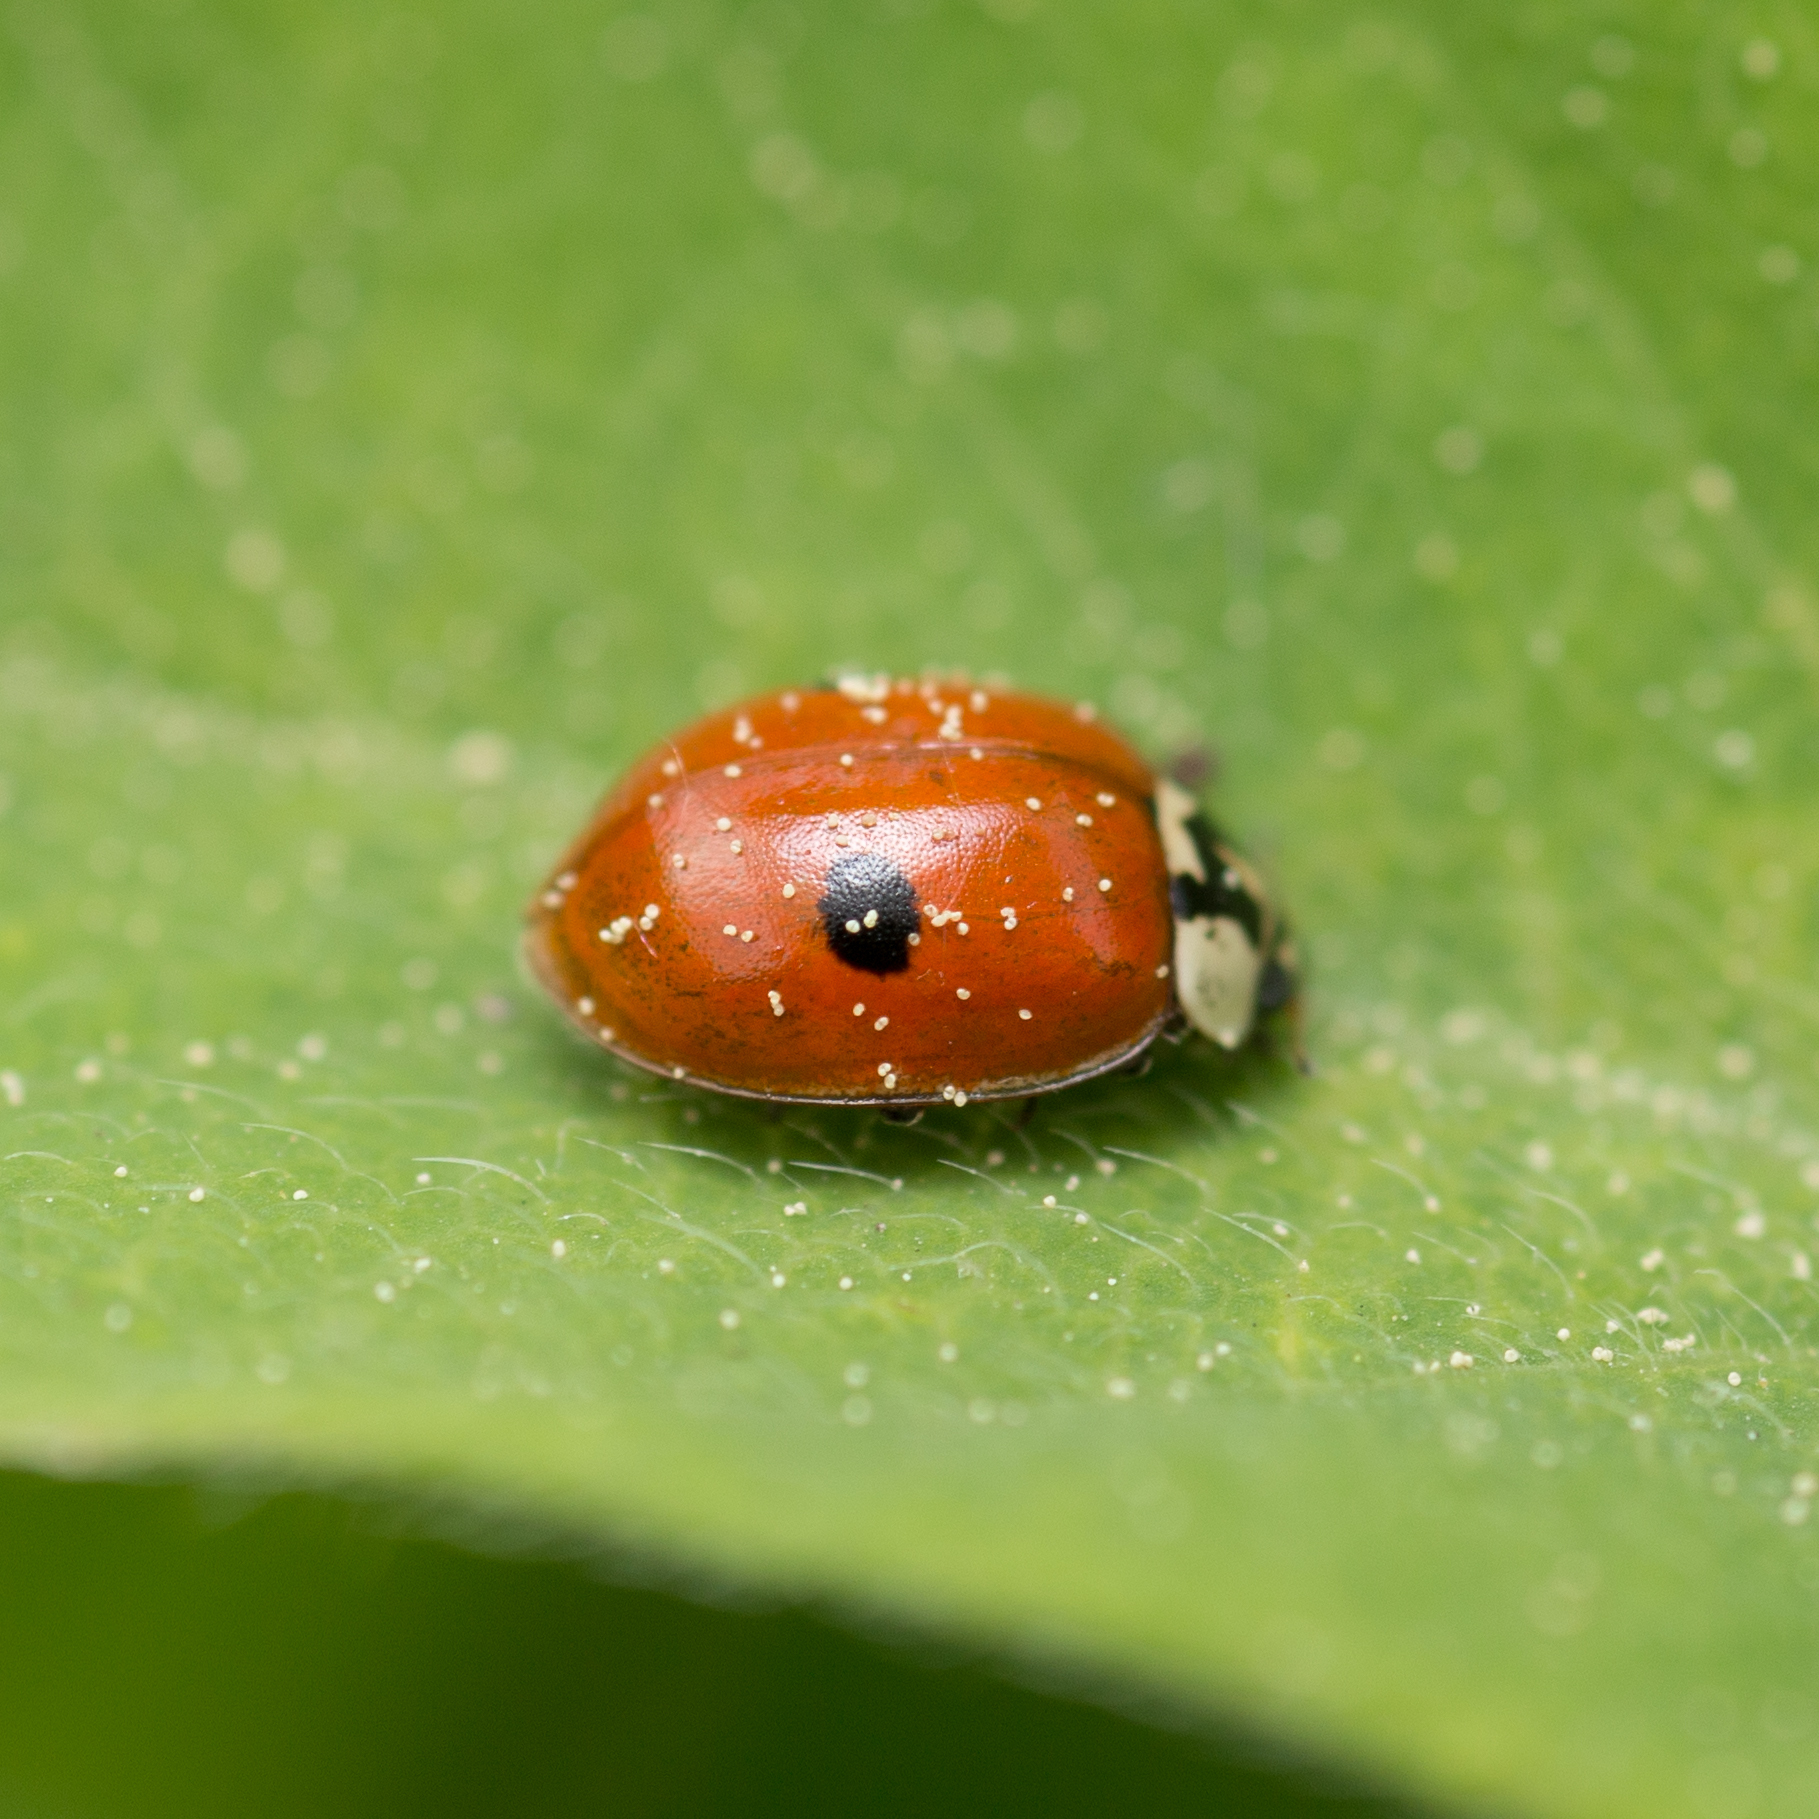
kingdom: Animalia
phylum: Arthropoda
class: Insecta
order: Coleoptera
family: Coccinellidae
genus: Adalia
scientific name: Adalia bipunctata
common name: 2-spot ladybird
